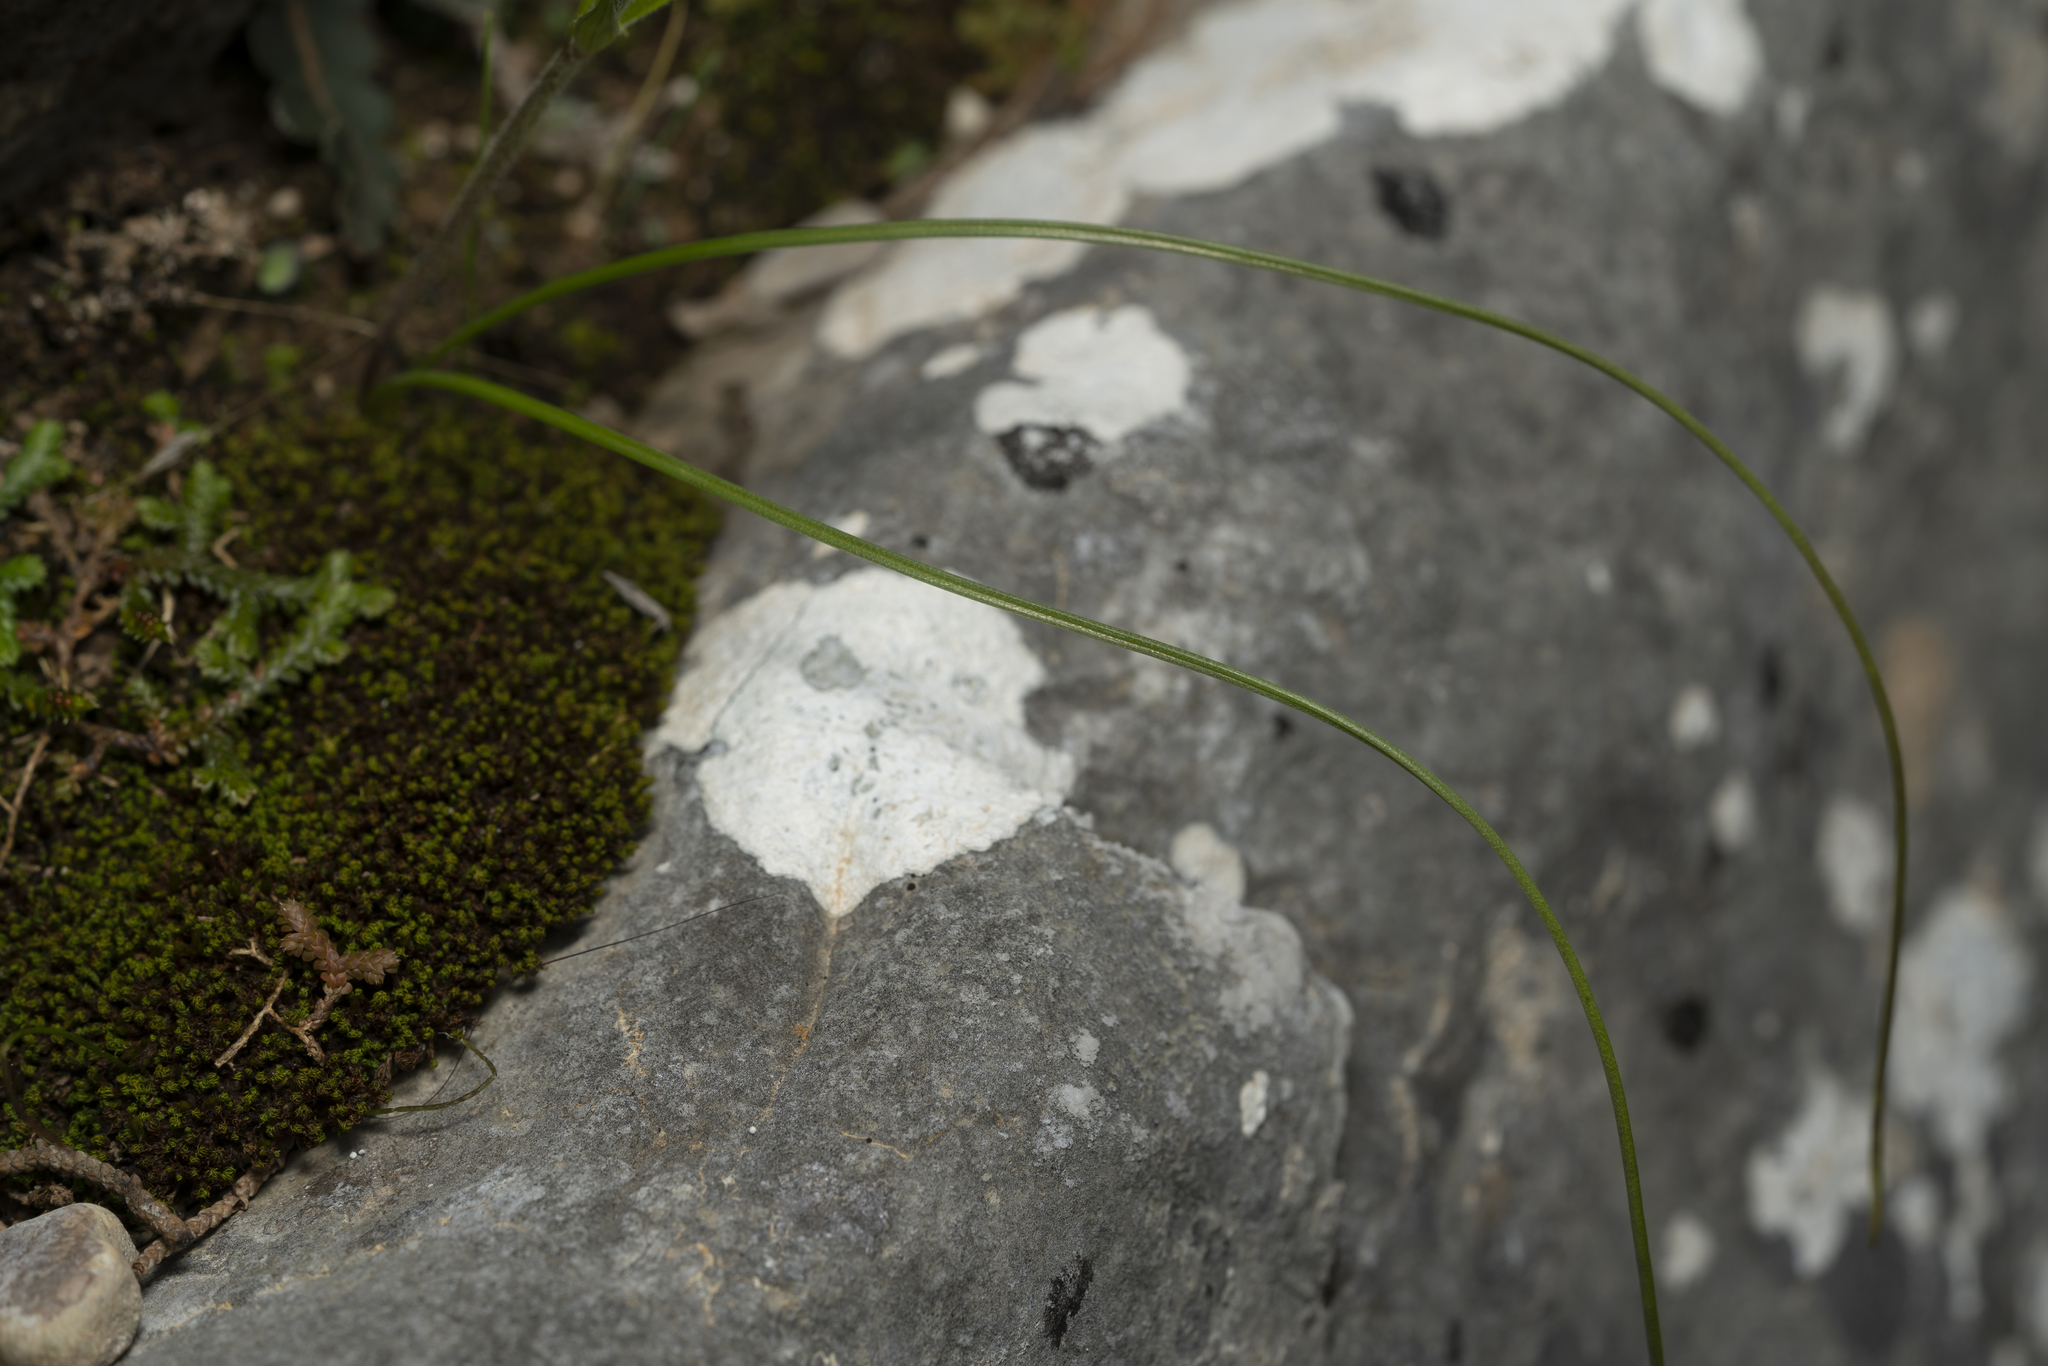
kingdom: Plantae
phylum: Tracheophyta
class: Liliopsida
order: Liliales
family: Liliaceae
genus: Gagea
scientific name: Gagea peduncularis
